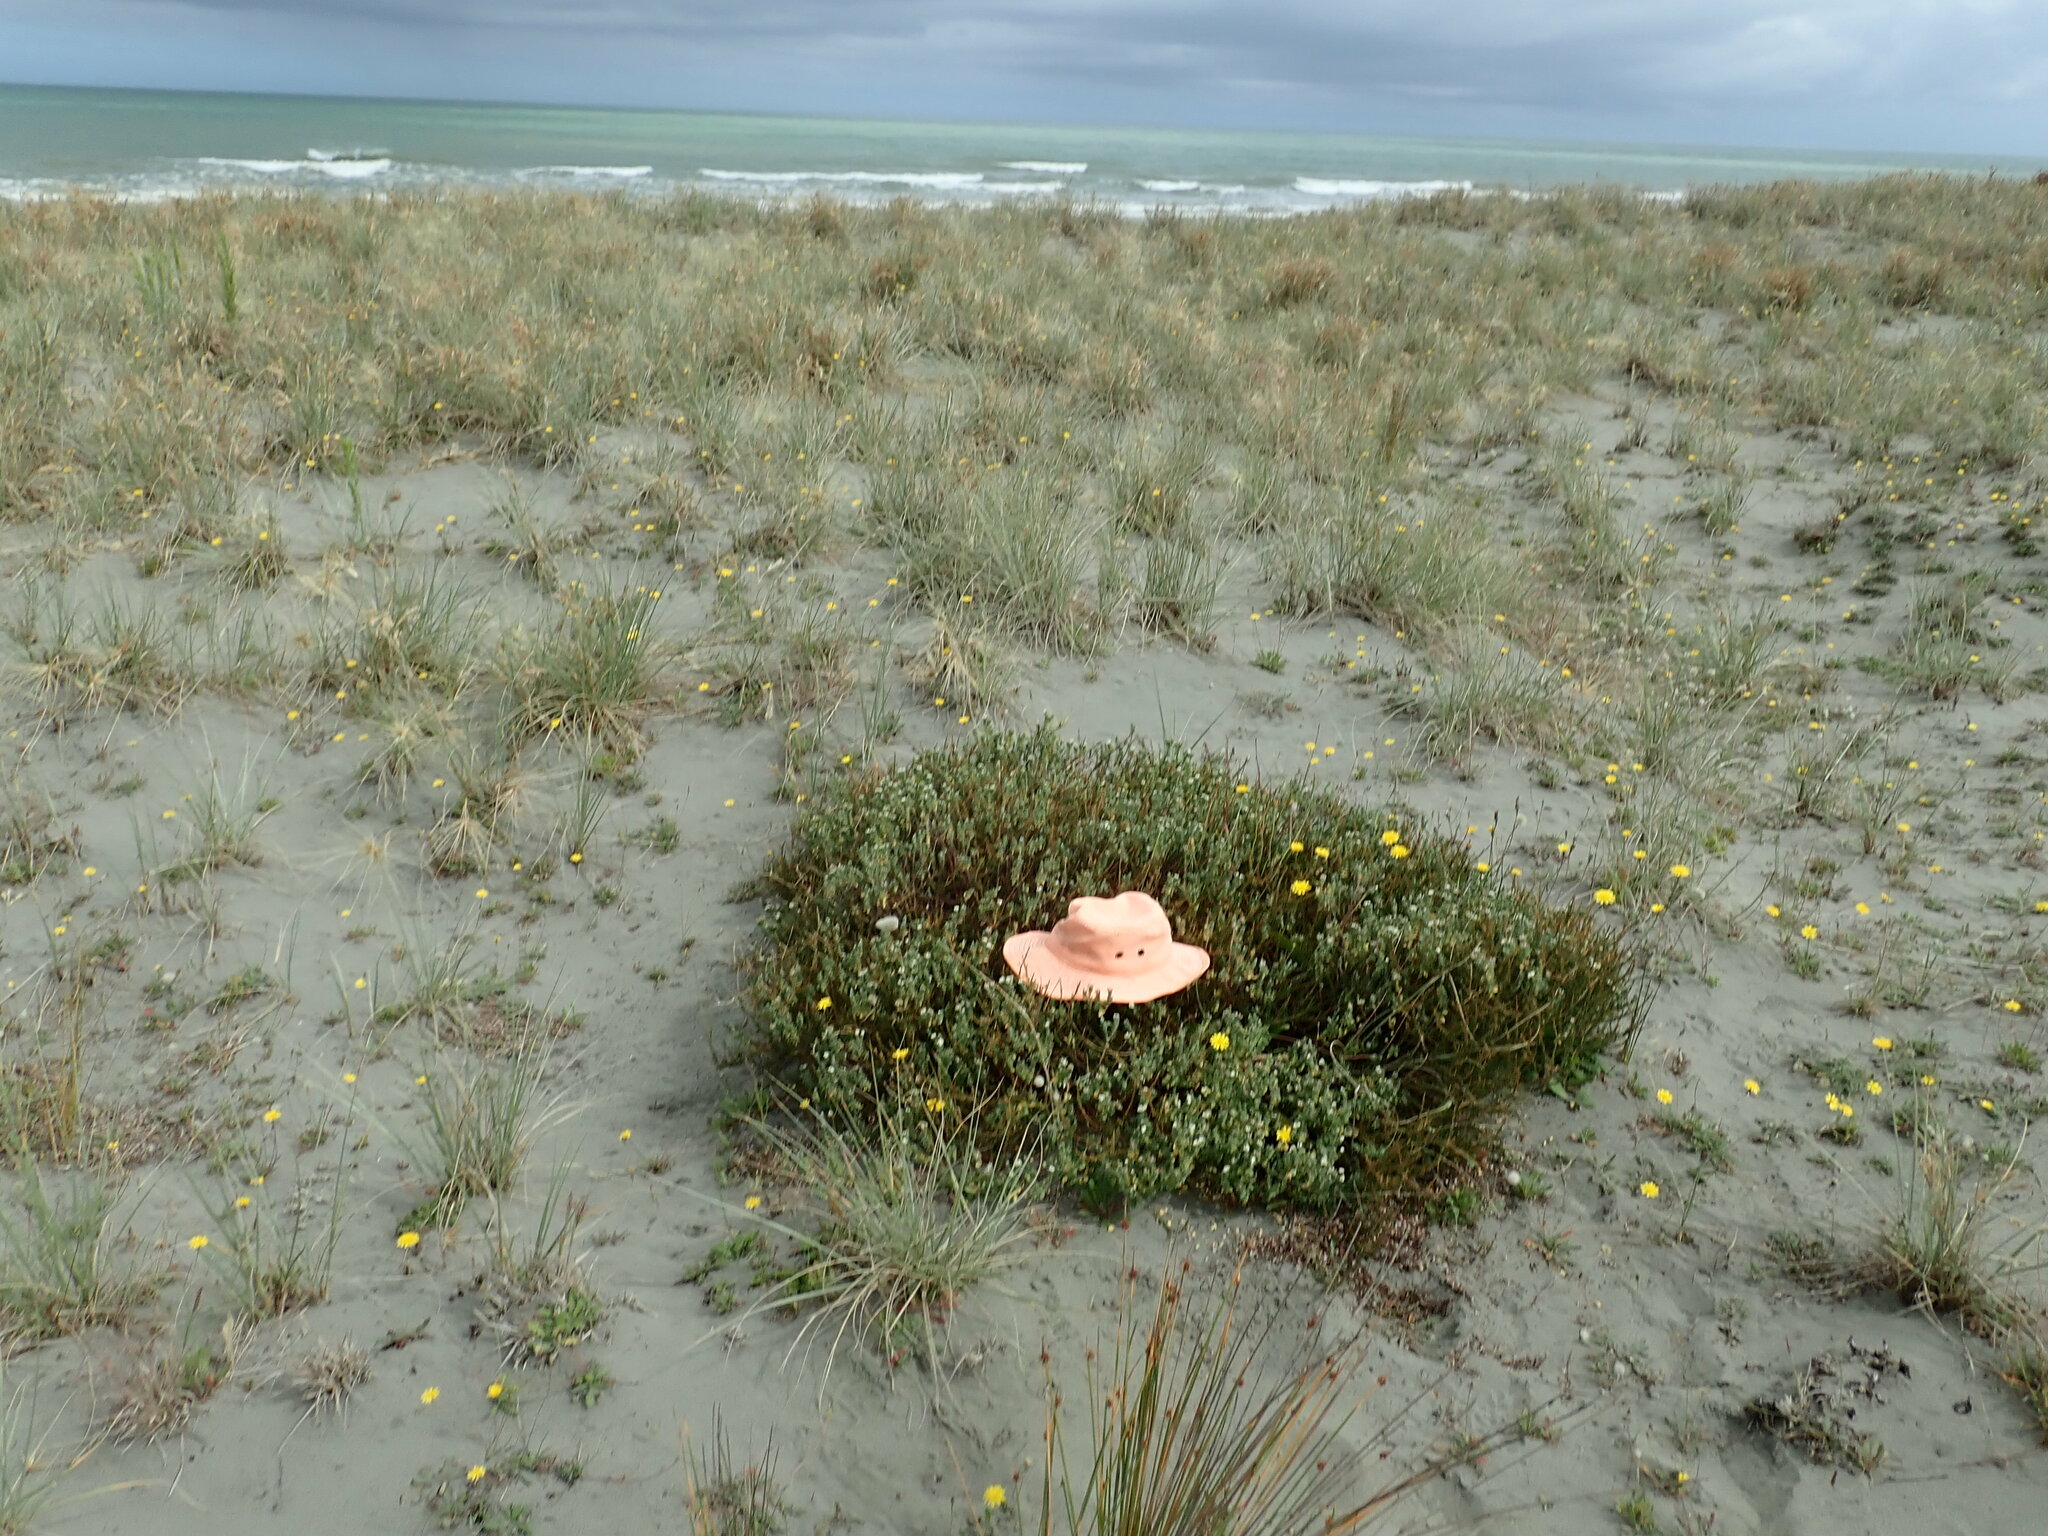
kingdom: Animalia
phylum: Arthropoda
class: Arachnida
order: Araneae
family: Theridiidae
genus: Latrodectus
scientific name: Latrodectus katipo
